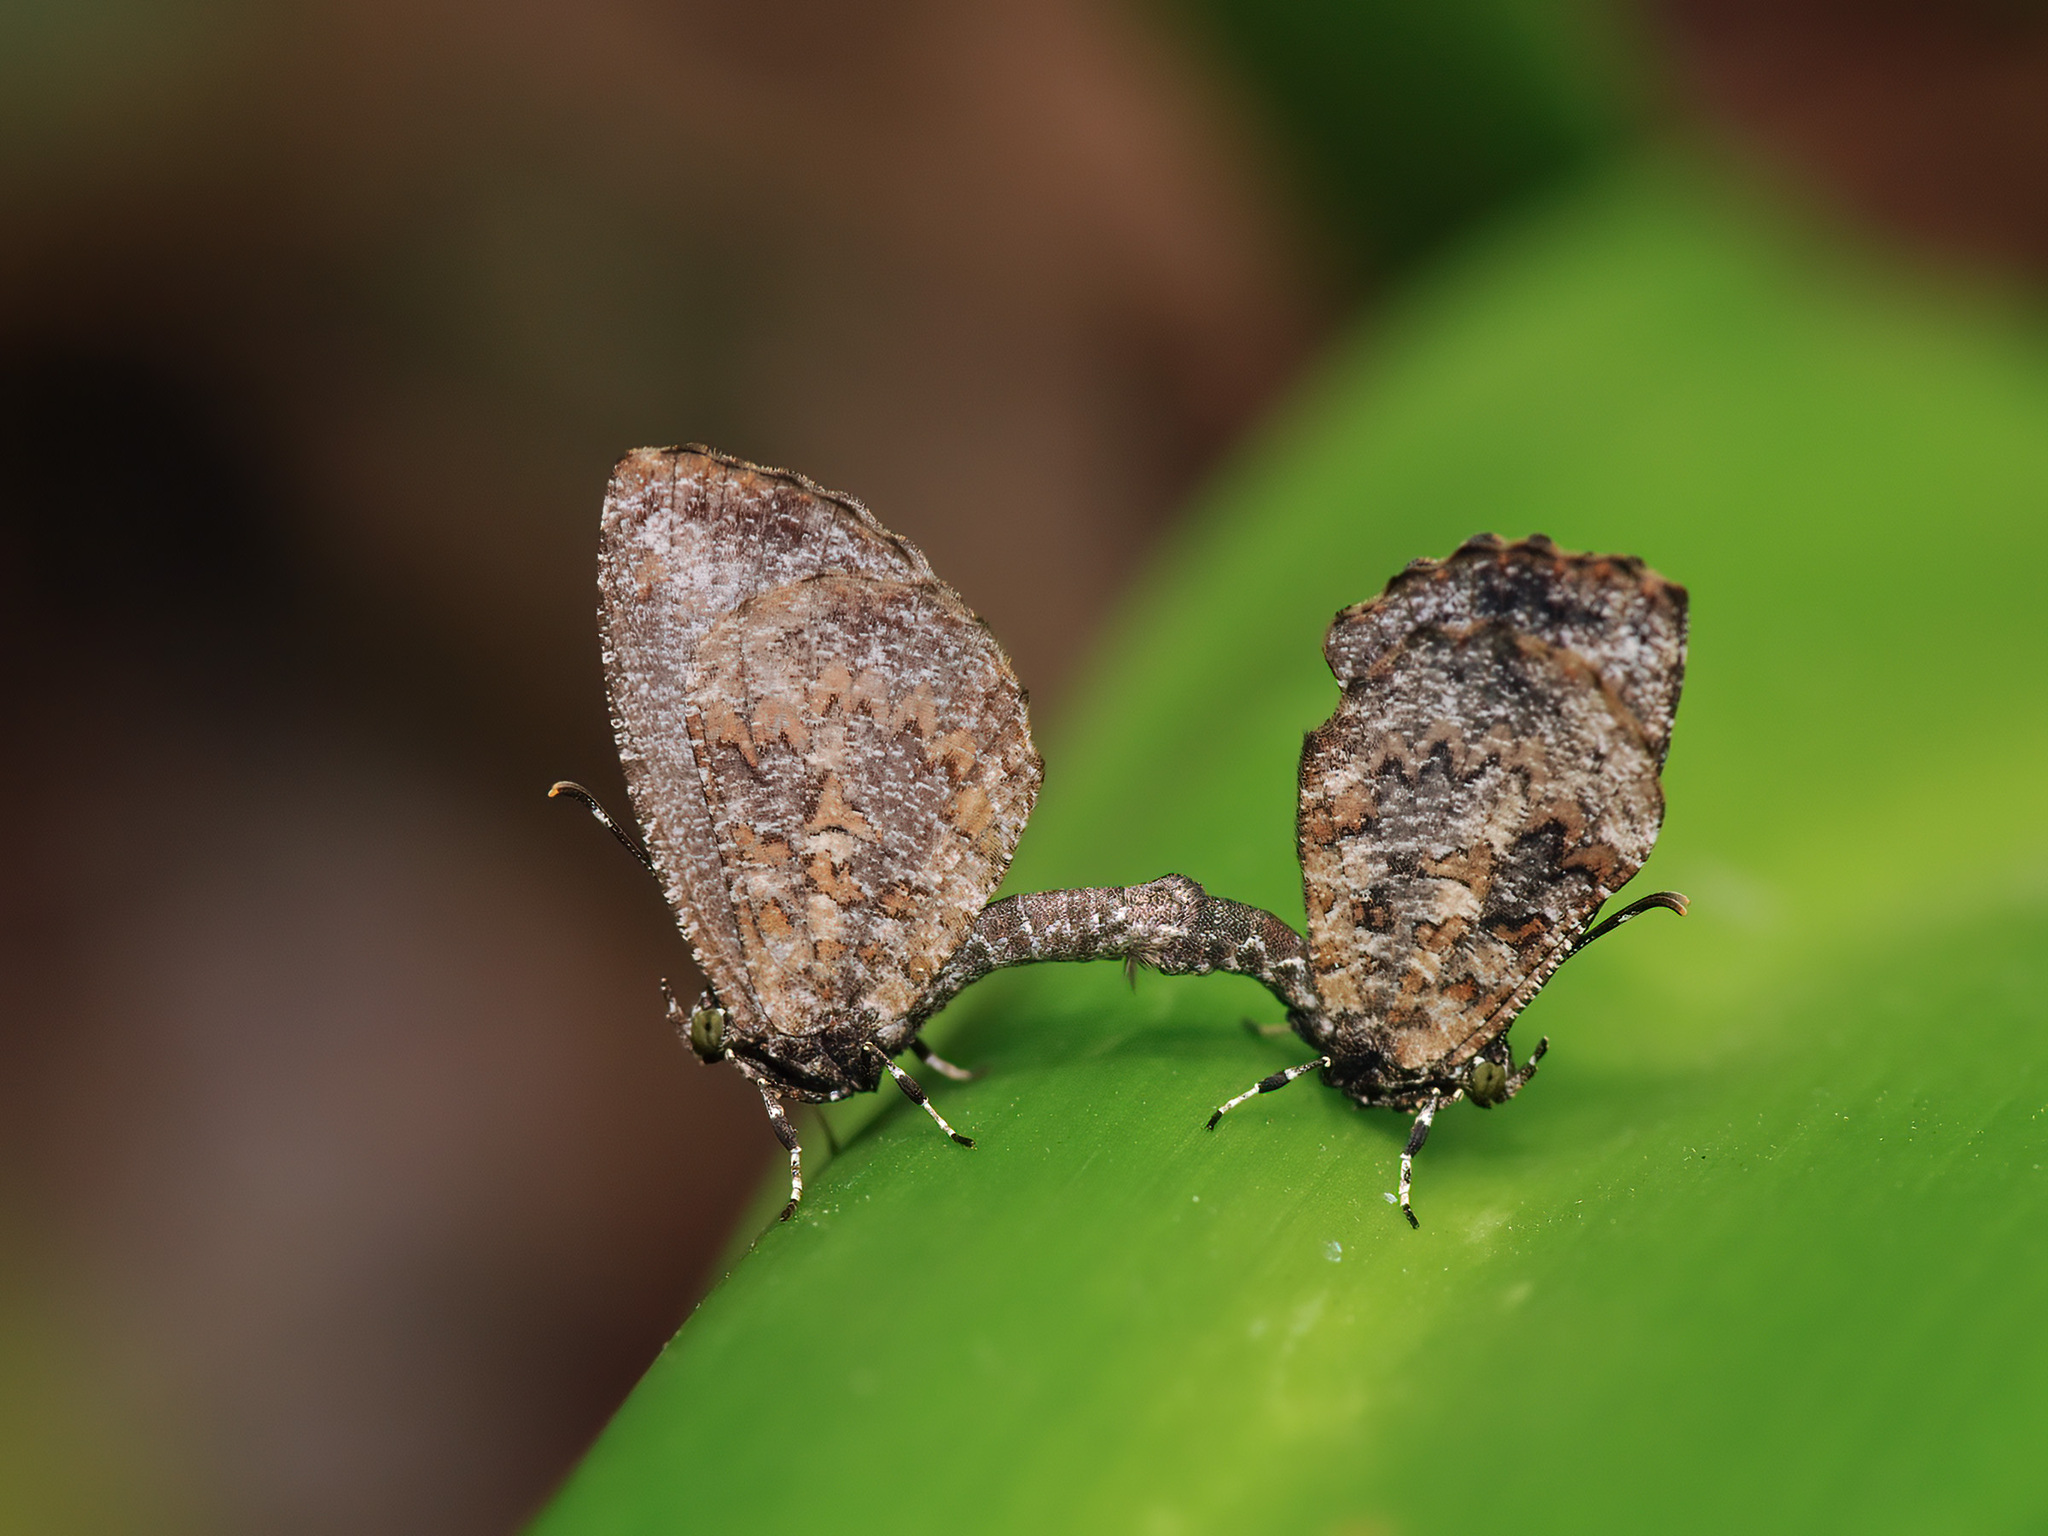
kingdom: Animalia
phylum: Arthropoda
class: Insecta
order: Lepidoptera
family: Lycaenidae
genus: Logania
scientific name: Logania marmorata
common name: Pale mottle
